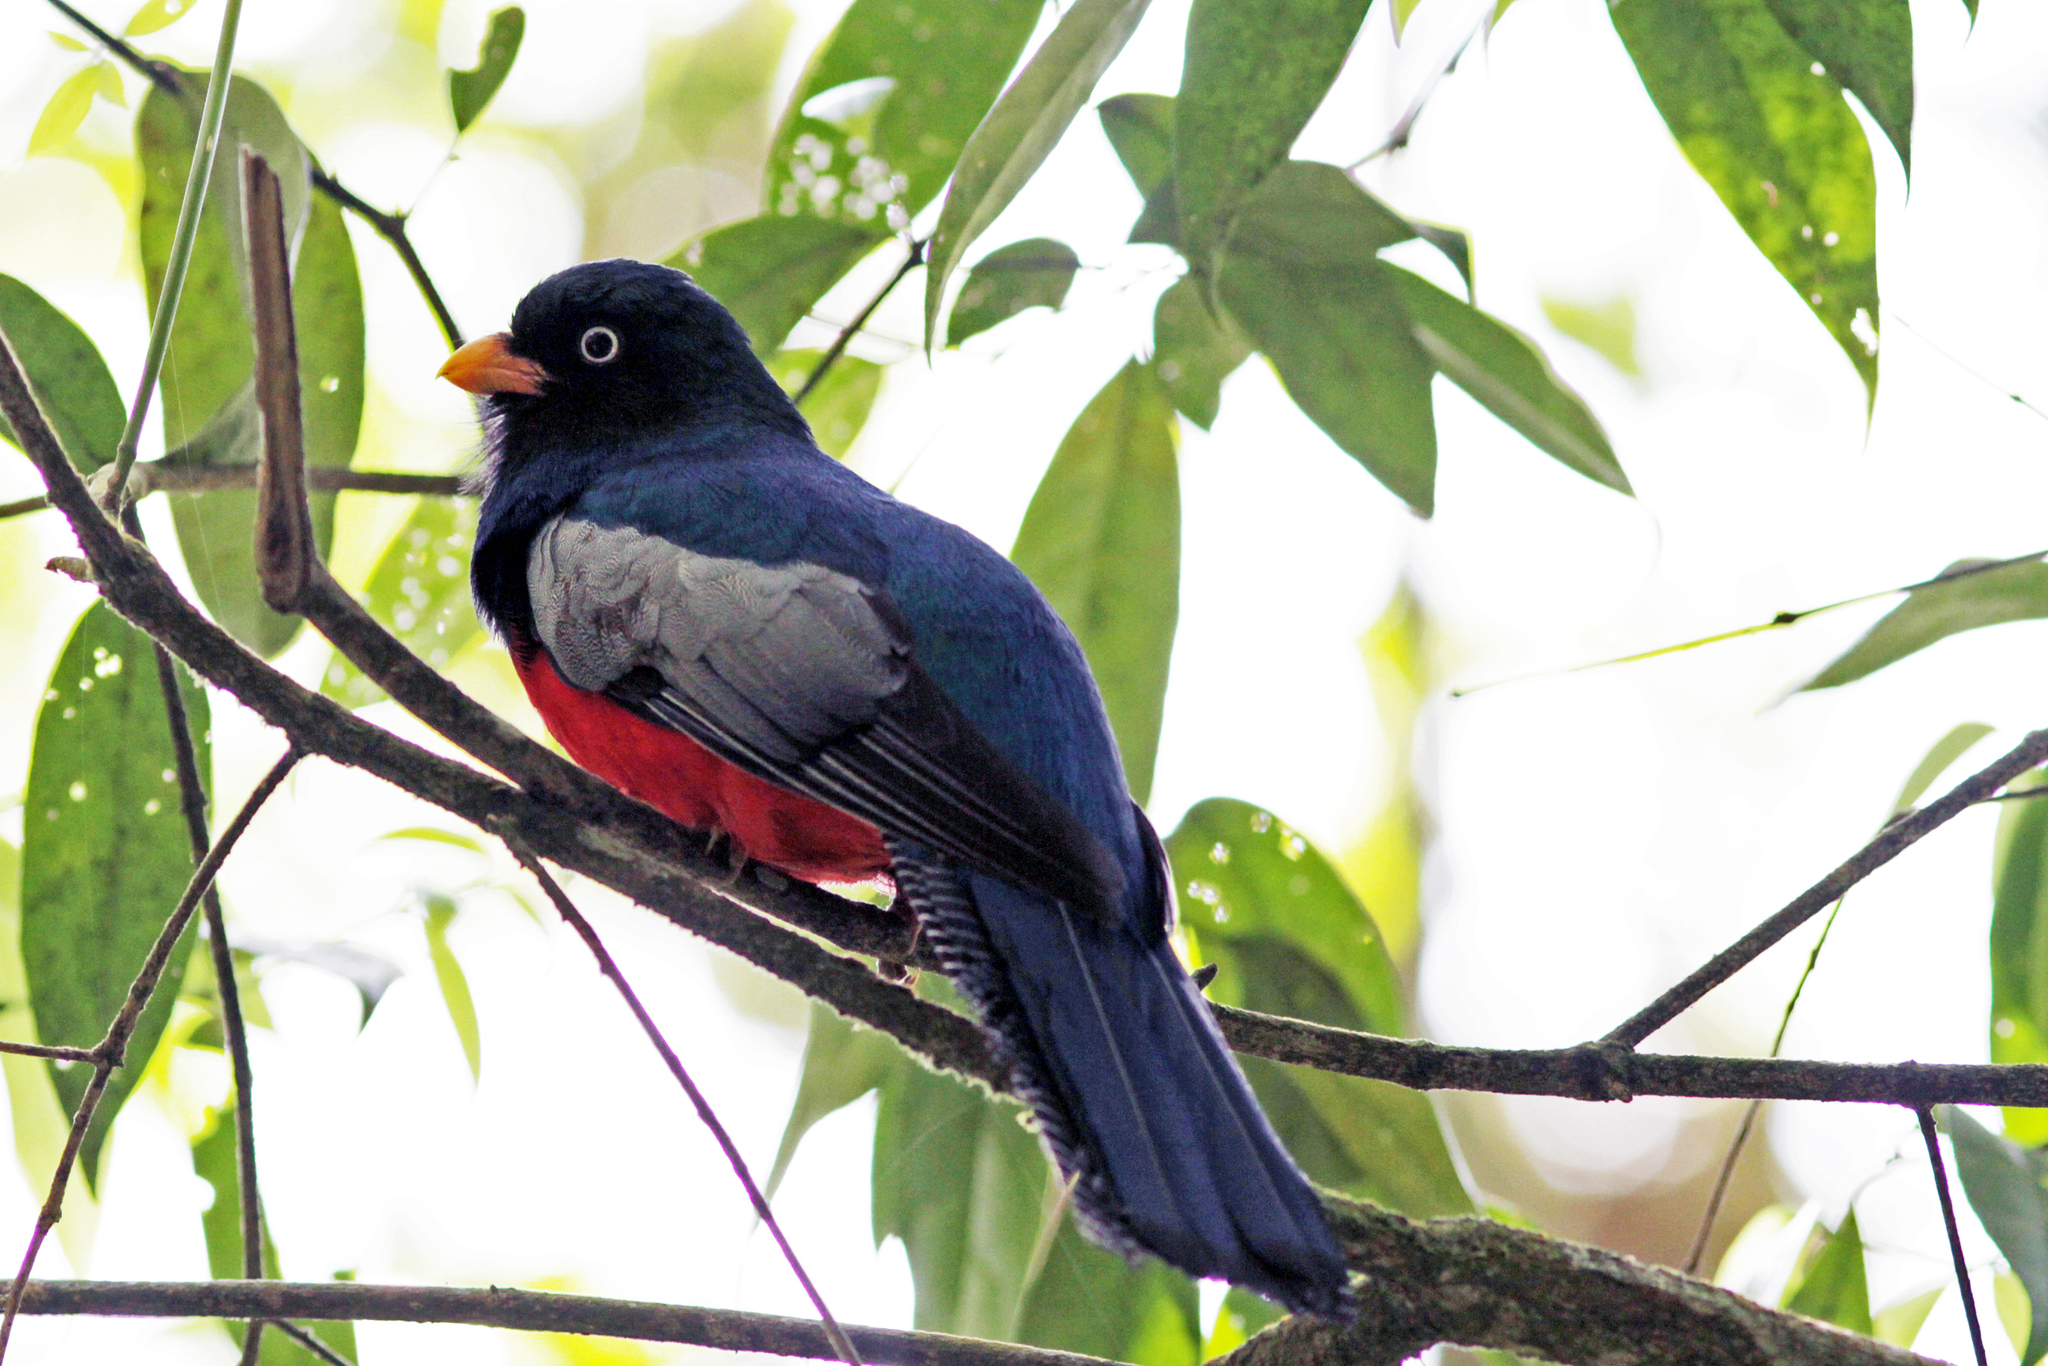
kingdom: Animalia
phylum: Chordata
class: Aves
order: Trogoniformes
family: Trogonidae
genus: Trogon
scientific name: Trogon clathratus
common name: Lattice-tailed trogon
